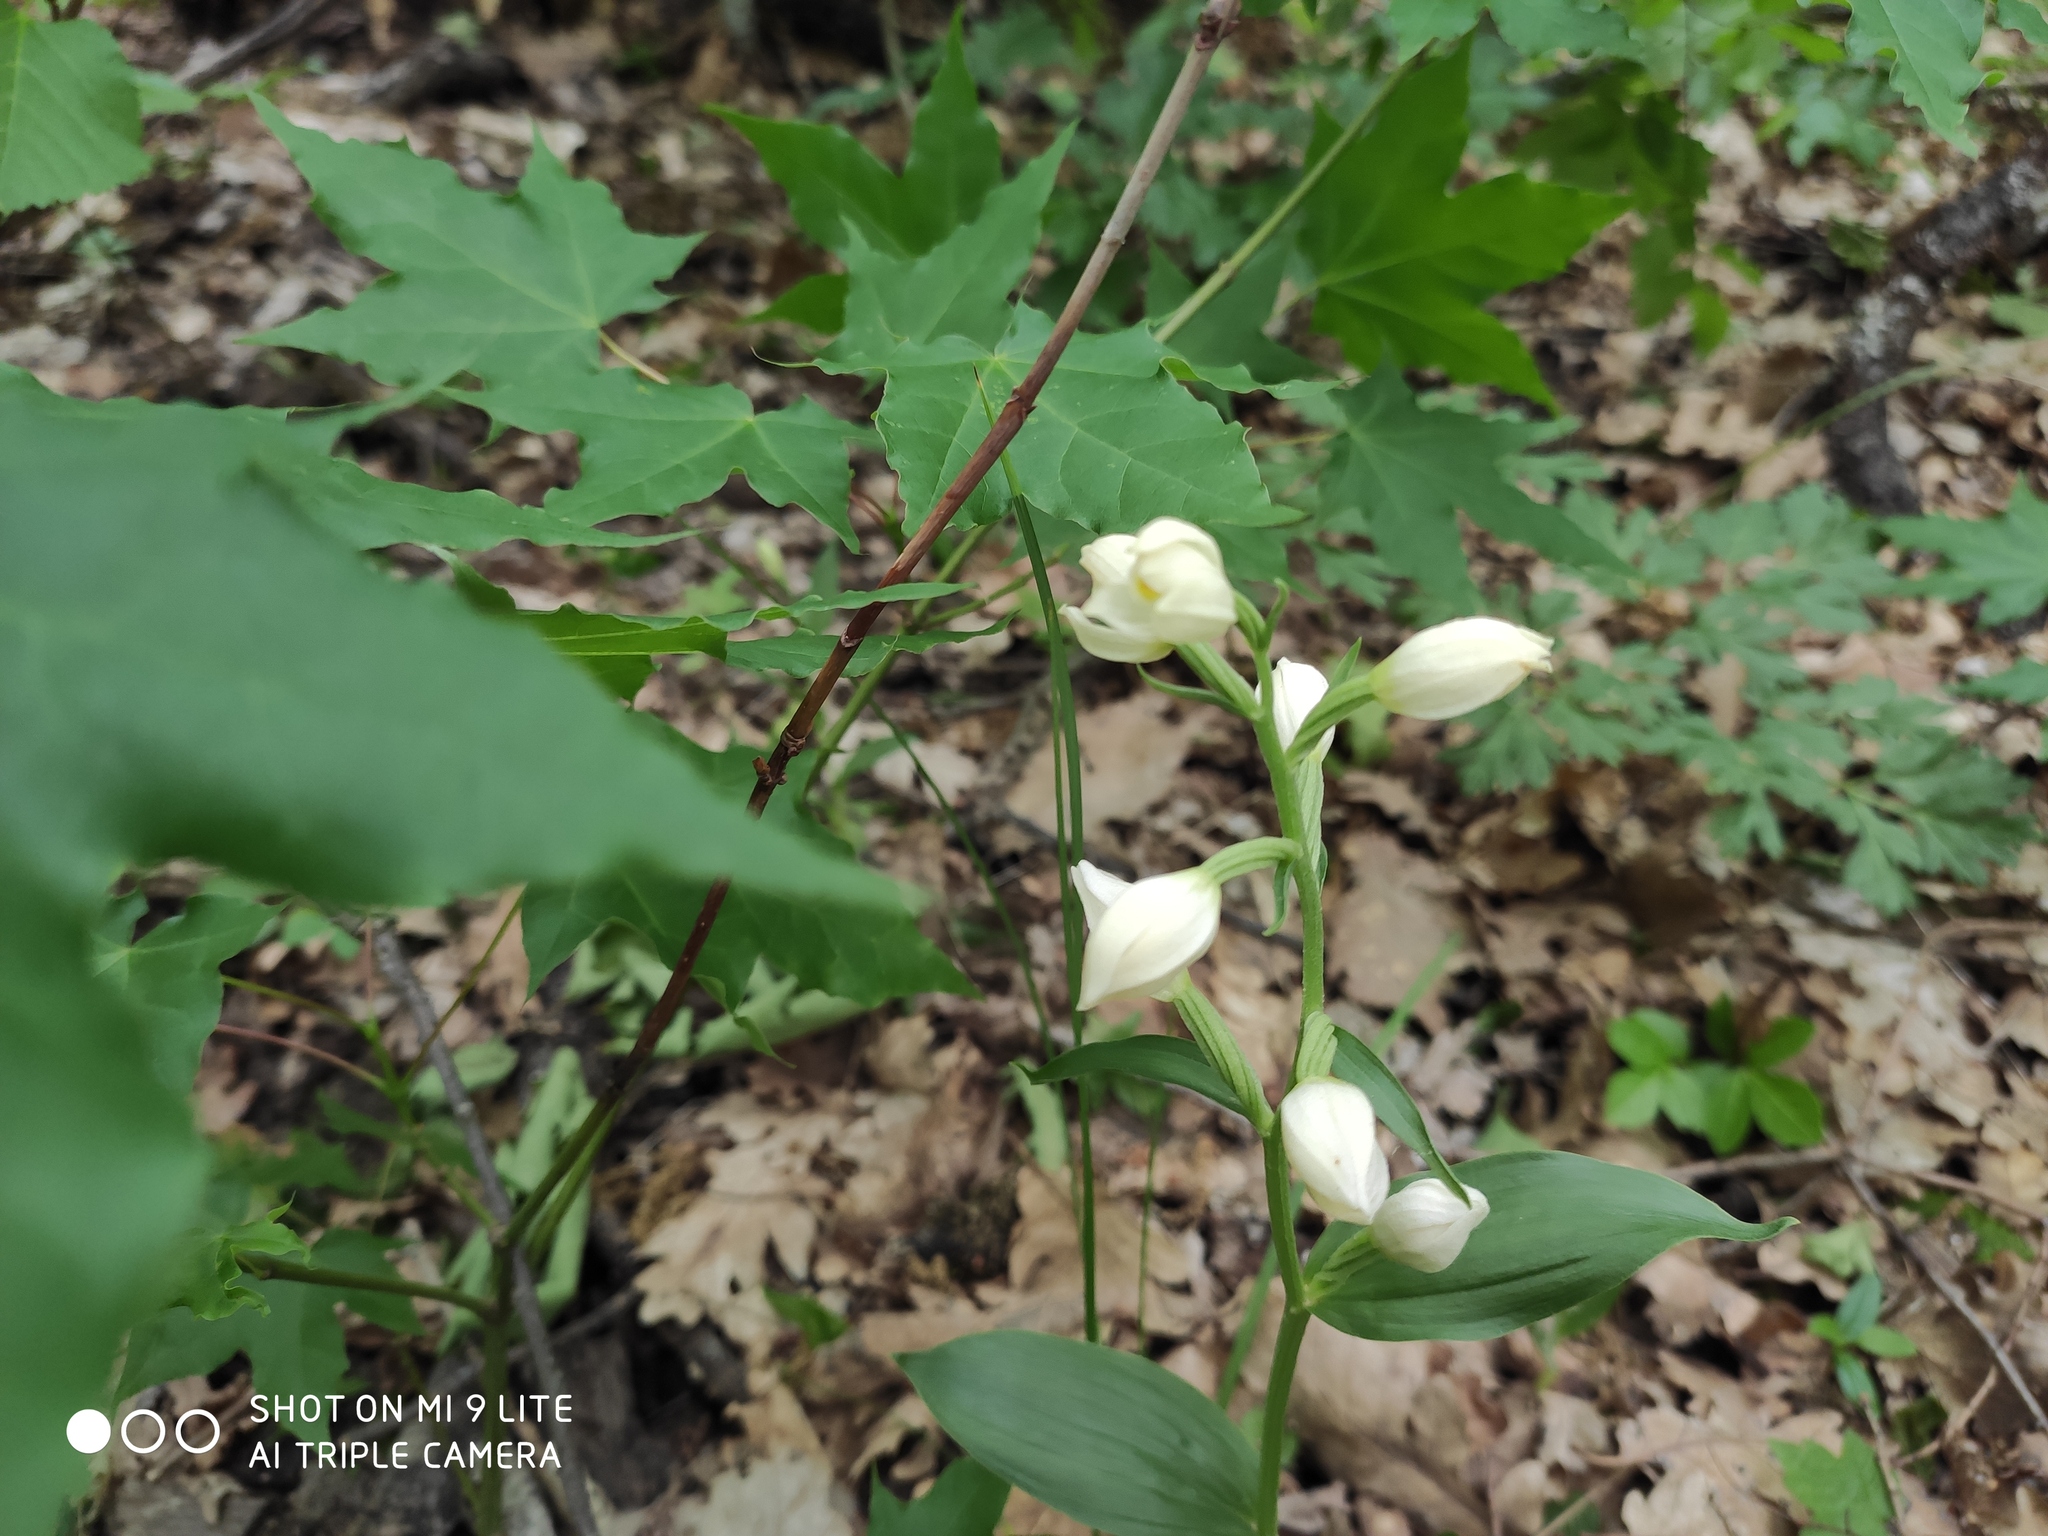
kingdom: Plantae
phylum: Tracheophyta
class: Liliopsida
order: Asparagales
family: Orchidaceae
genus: Cephalanthera
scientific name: Cephalanthera damasonium
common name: White helleborine
